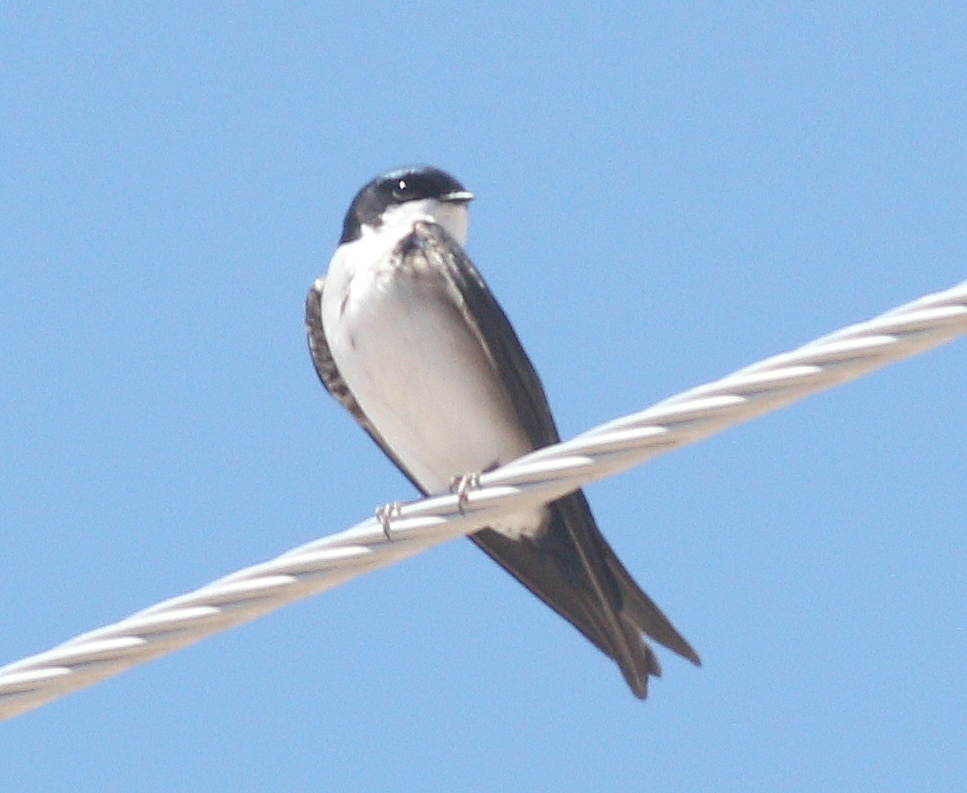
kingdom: Animalia
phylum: Chordata
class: Aves
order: Passeriformes
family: Hirundinidae
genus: Notiochelidon
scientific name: Notiochelidon cyanoleuca
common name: Blue-and-white swallow
